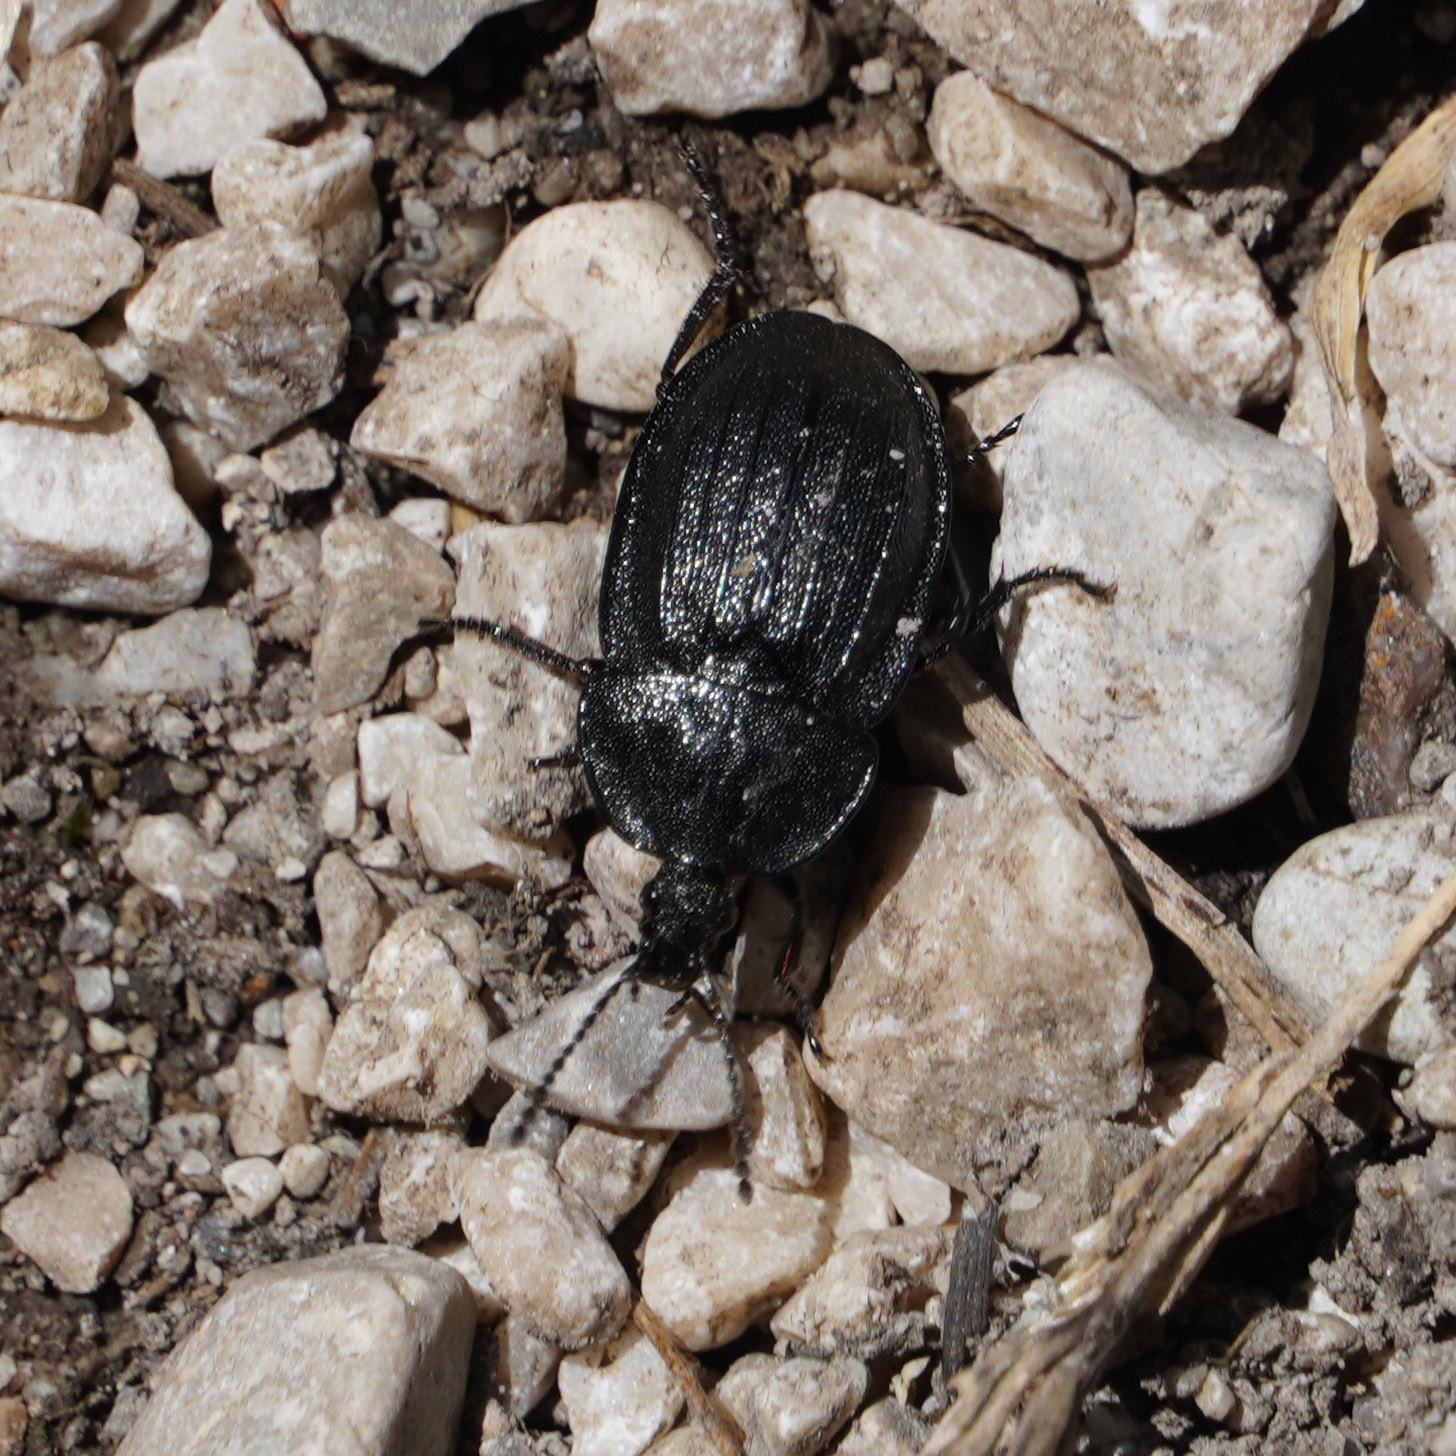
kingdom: Animalia
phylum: Arthropoda
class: Insecta
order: Coleoptera
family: Staphylinidae
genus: Silpha
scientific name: Silpha atrata
